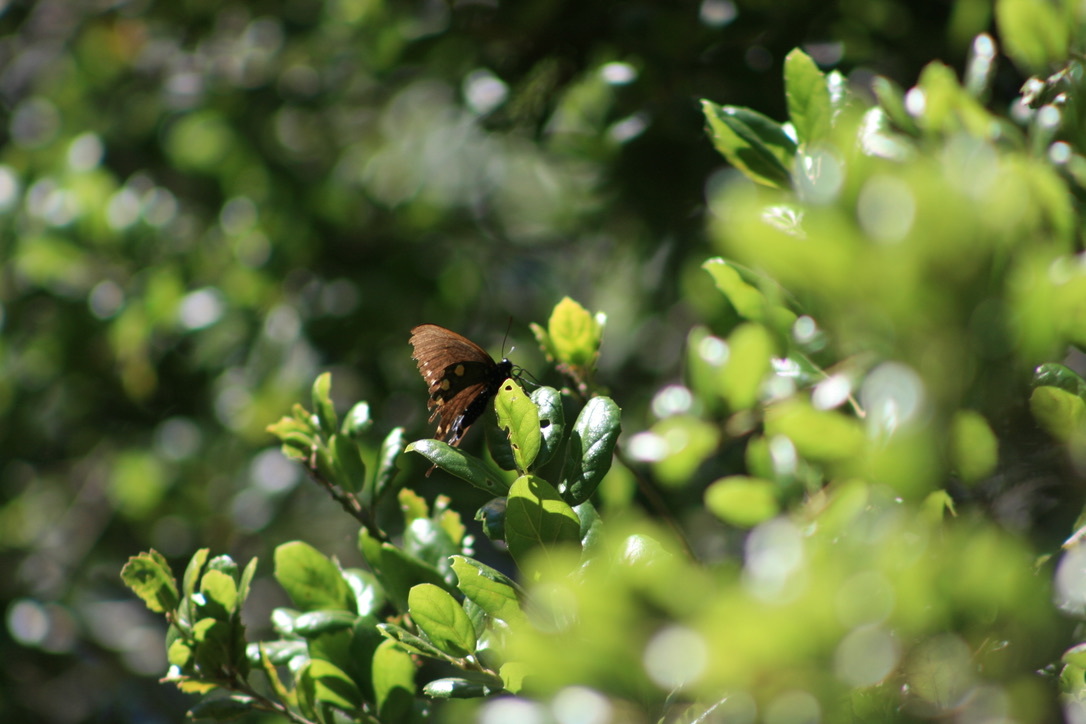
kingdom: Animalia
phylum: Arthropoda
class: Insecta
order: Lepidoptera
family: Papilionidae
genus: Battus
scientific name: Battus philenor
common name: Pipevine swallowtail
